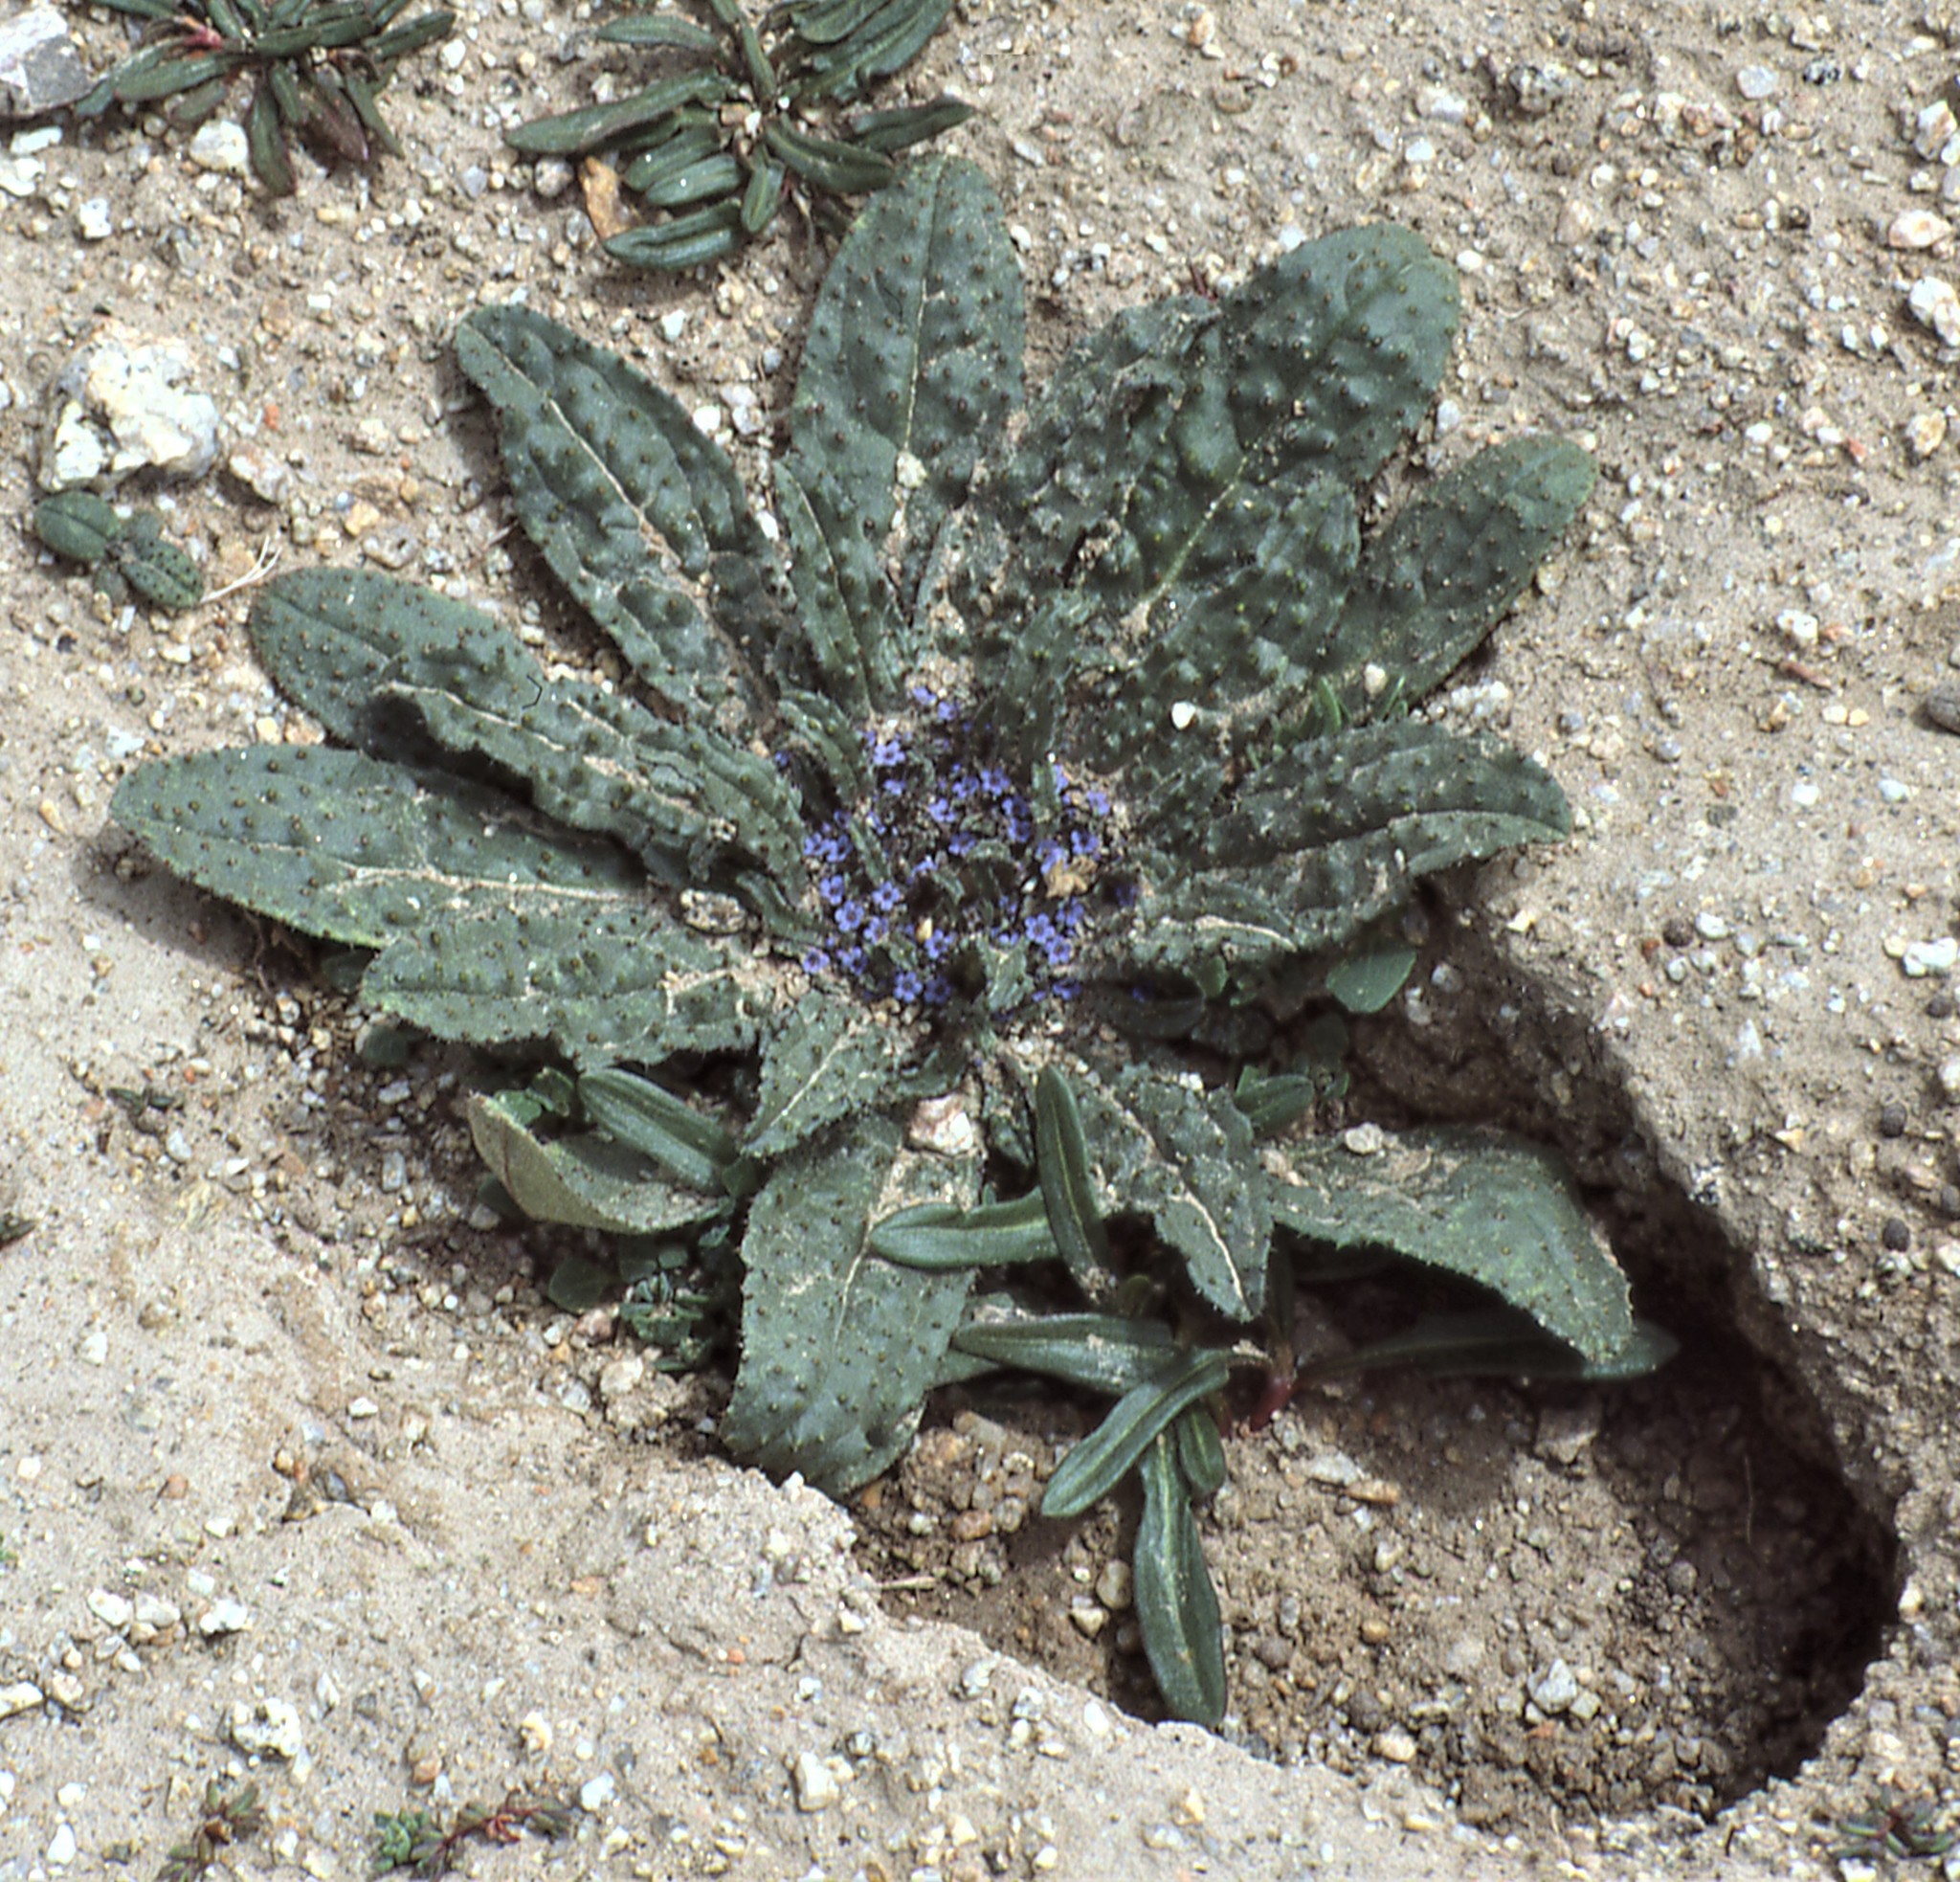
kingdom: Plantae
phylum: Tracheophyta
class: Magnoliopsida
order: Boraginales
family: Boraginaceae
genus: Microula
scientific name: Microula tibetica
